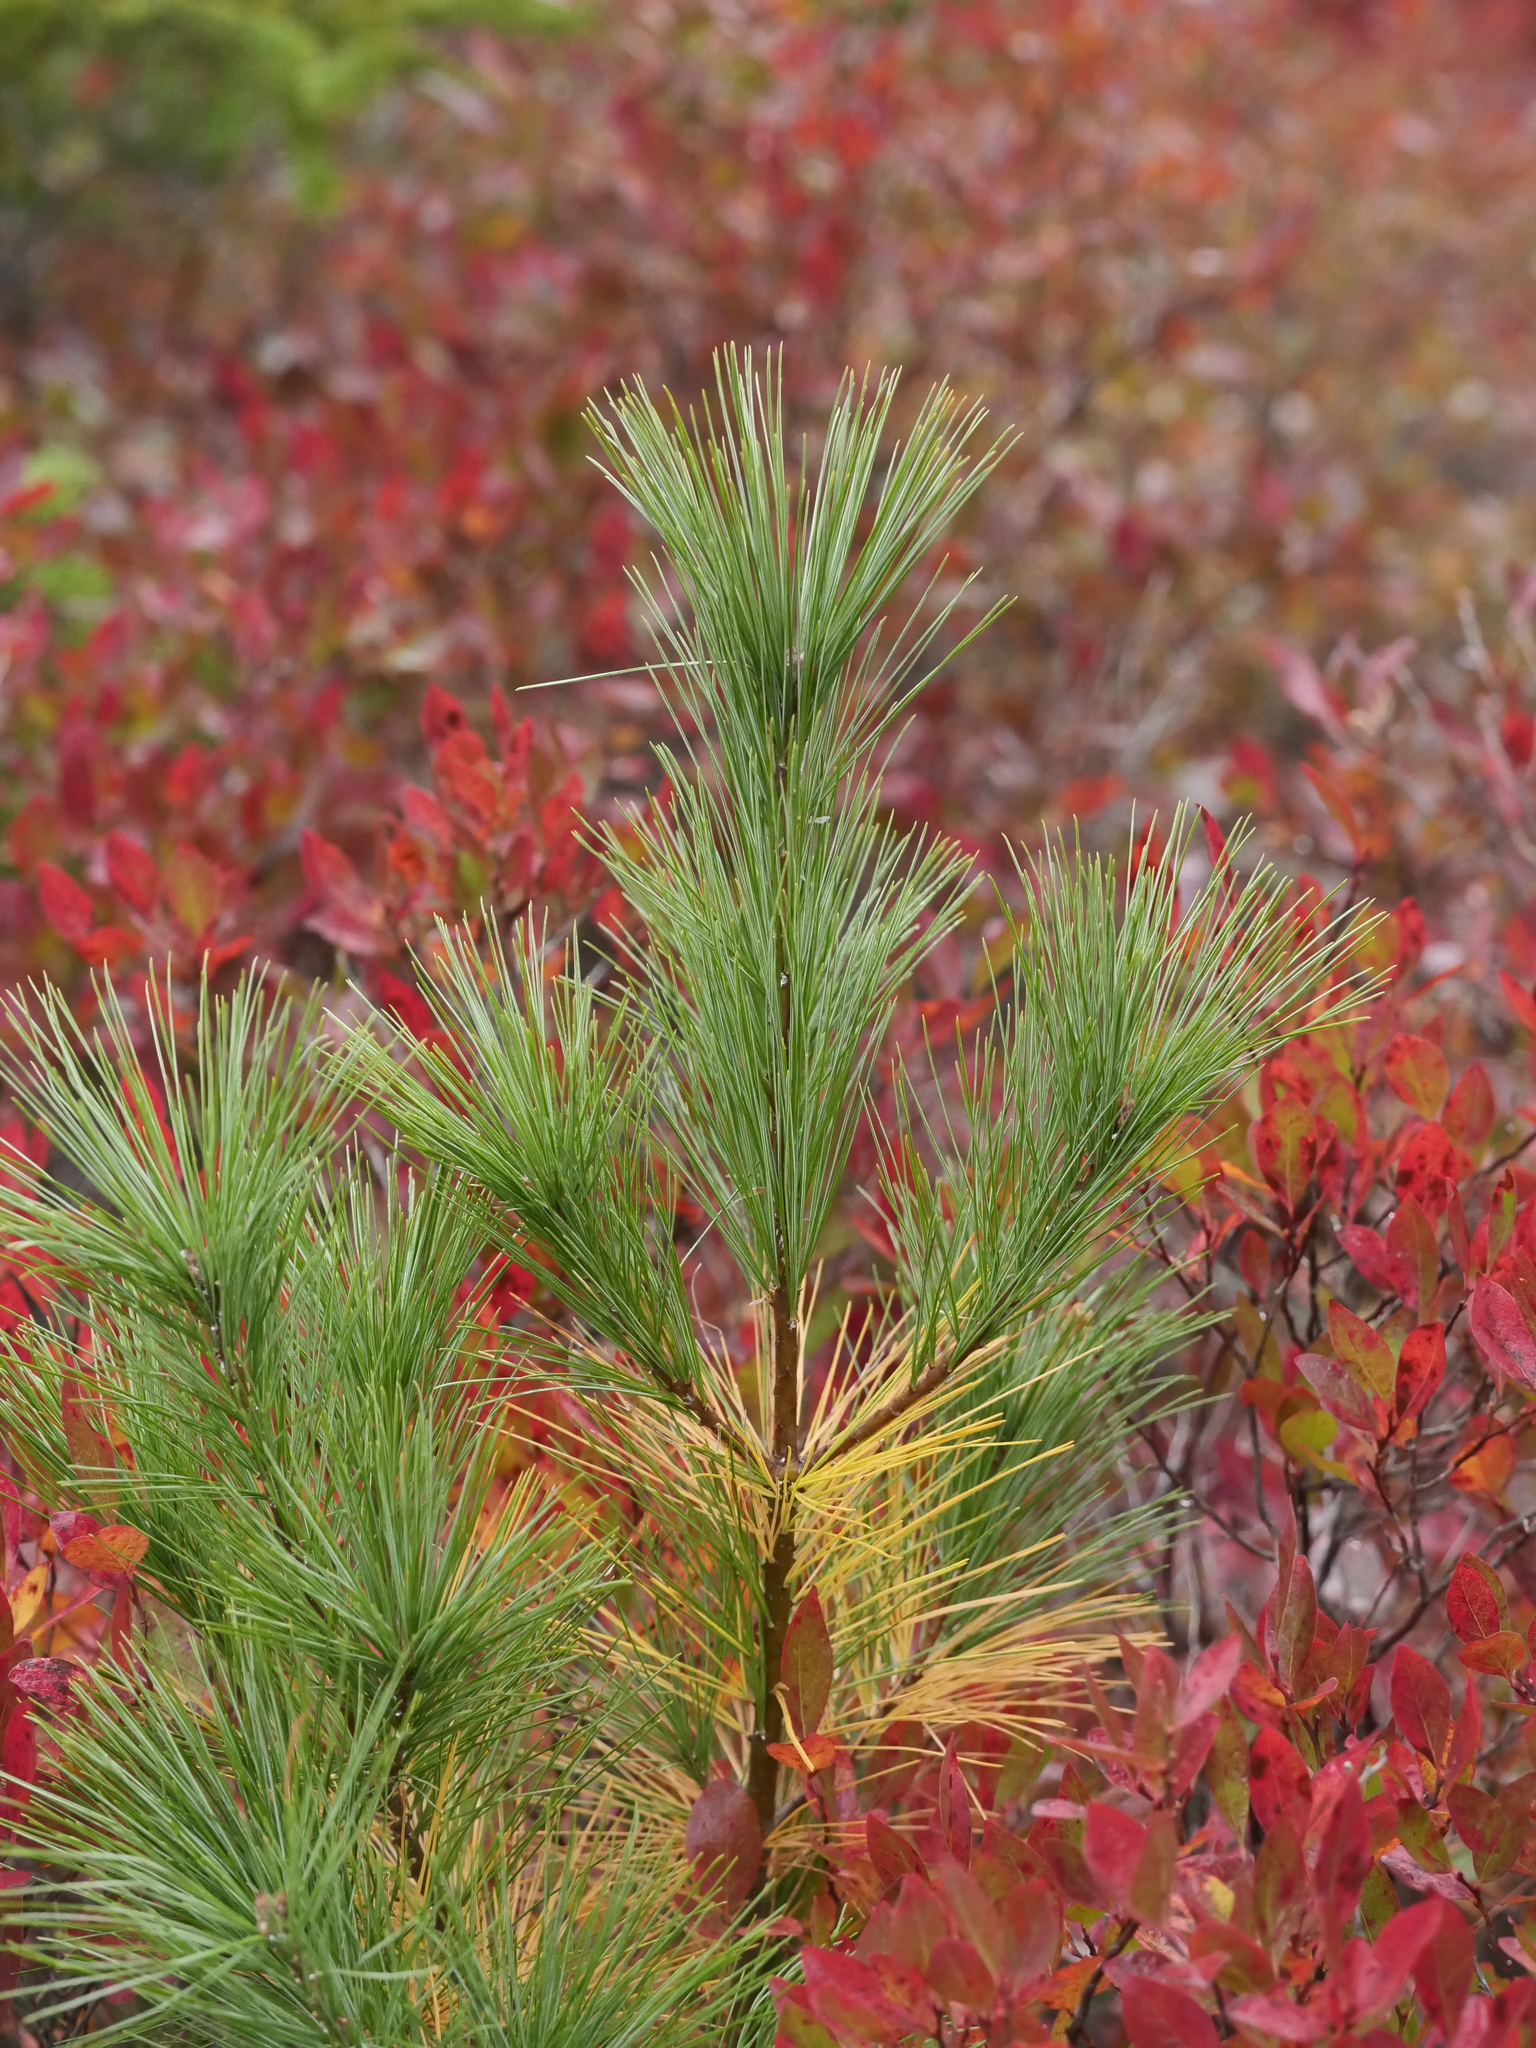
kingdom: Plantae
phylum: Tracheophyta
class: Pinopsida
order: Pinales
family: Pinaceae
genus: Pinus
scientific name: Pinus strobus
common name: Weymouth pine
